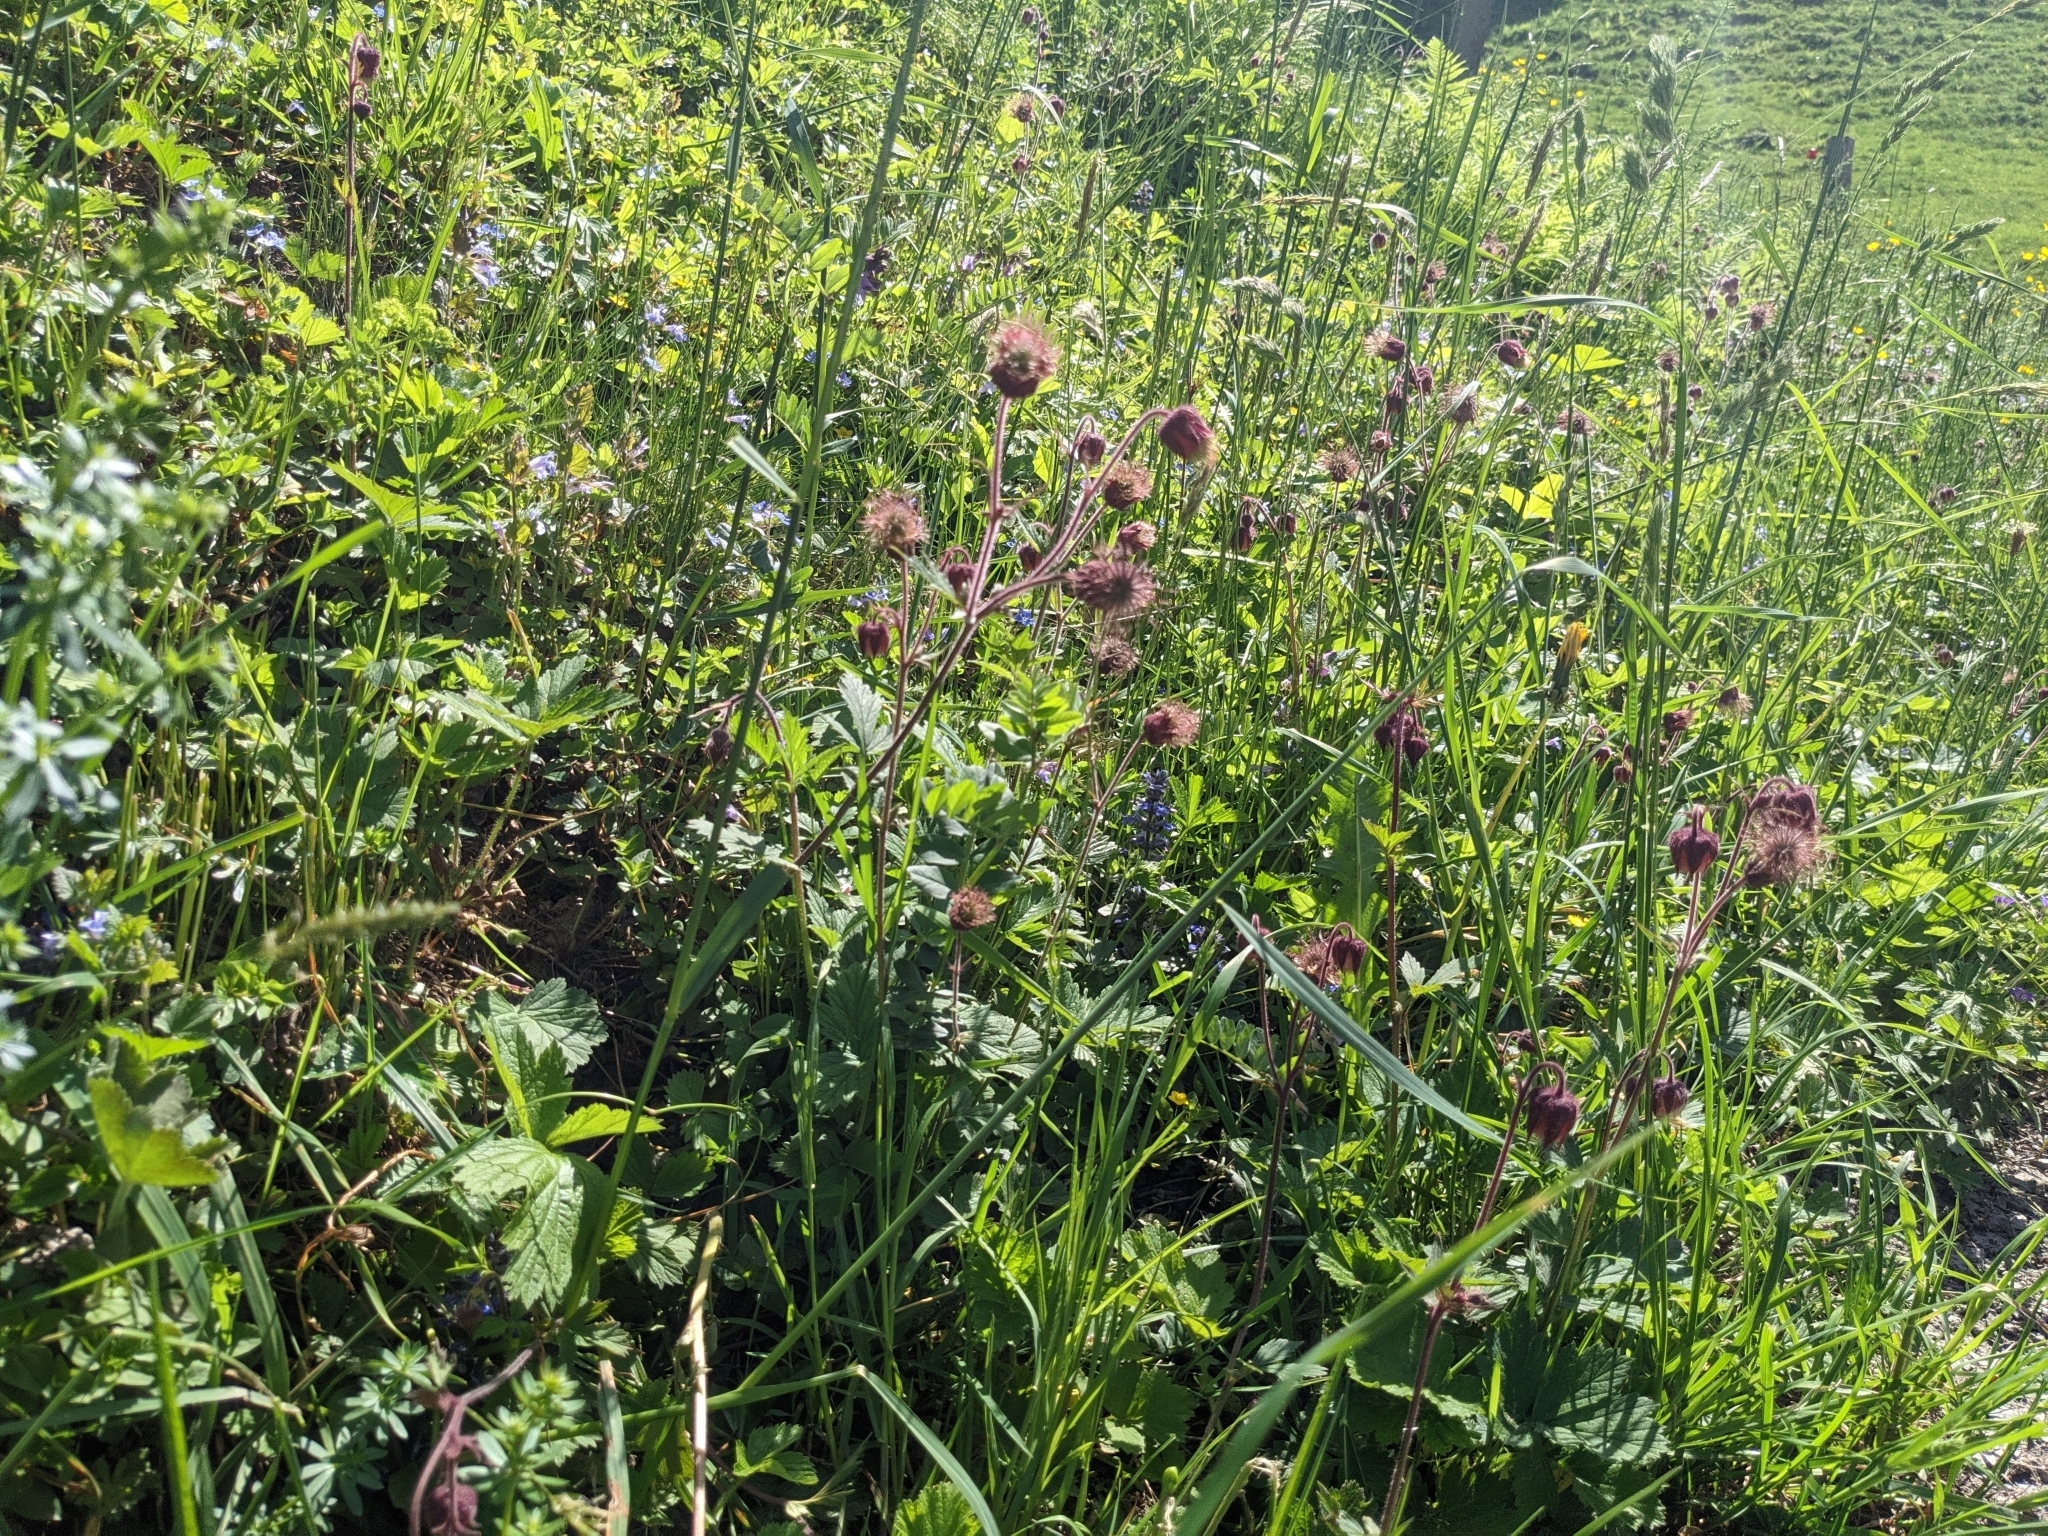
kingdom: Plantae
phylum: Tracheophyta
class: Magnoliopsida
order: Rosales
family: Rosaceae
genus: Geum
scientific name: Geum rivale
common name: Water avens
